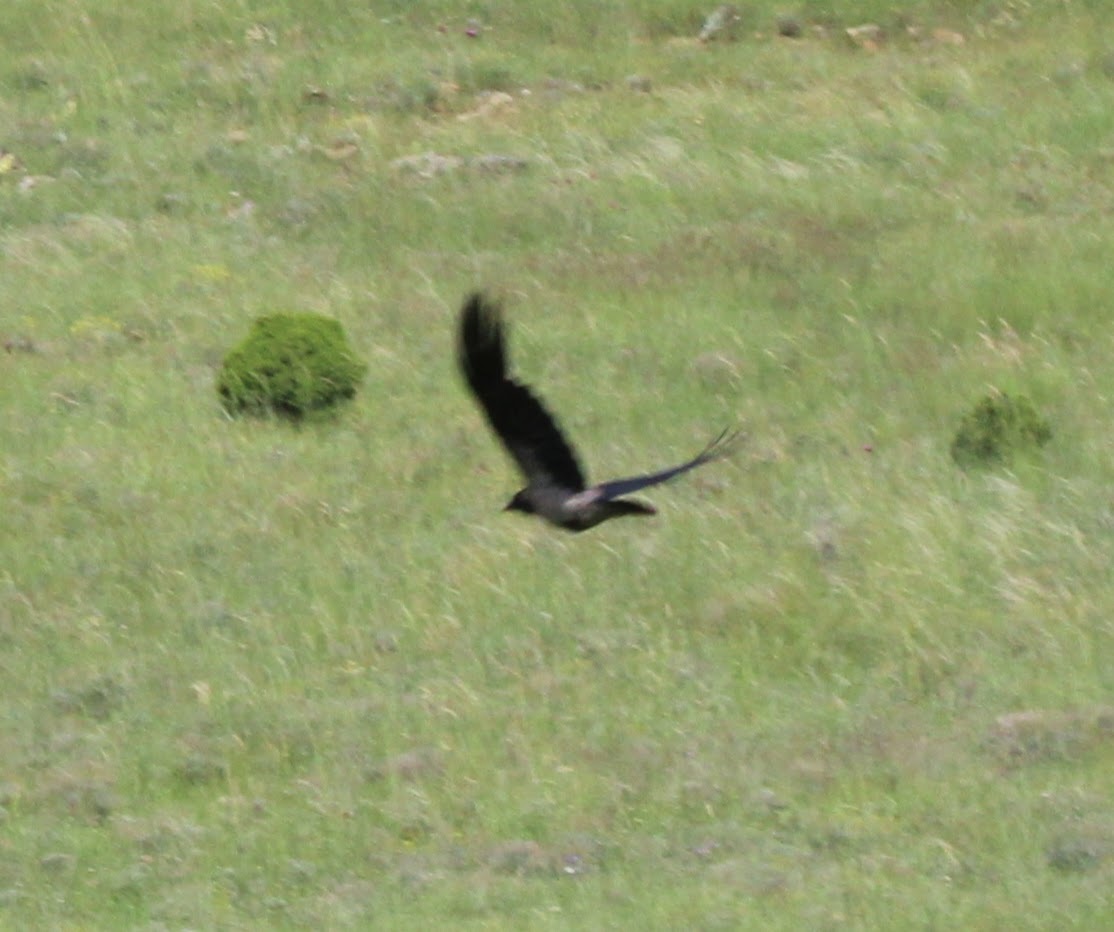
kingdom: Animalia
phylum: Chordata
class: Aves
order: Passeriformes
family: Corvidae
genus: Corvus
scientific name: Corvus cornix
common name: Hooded crow
